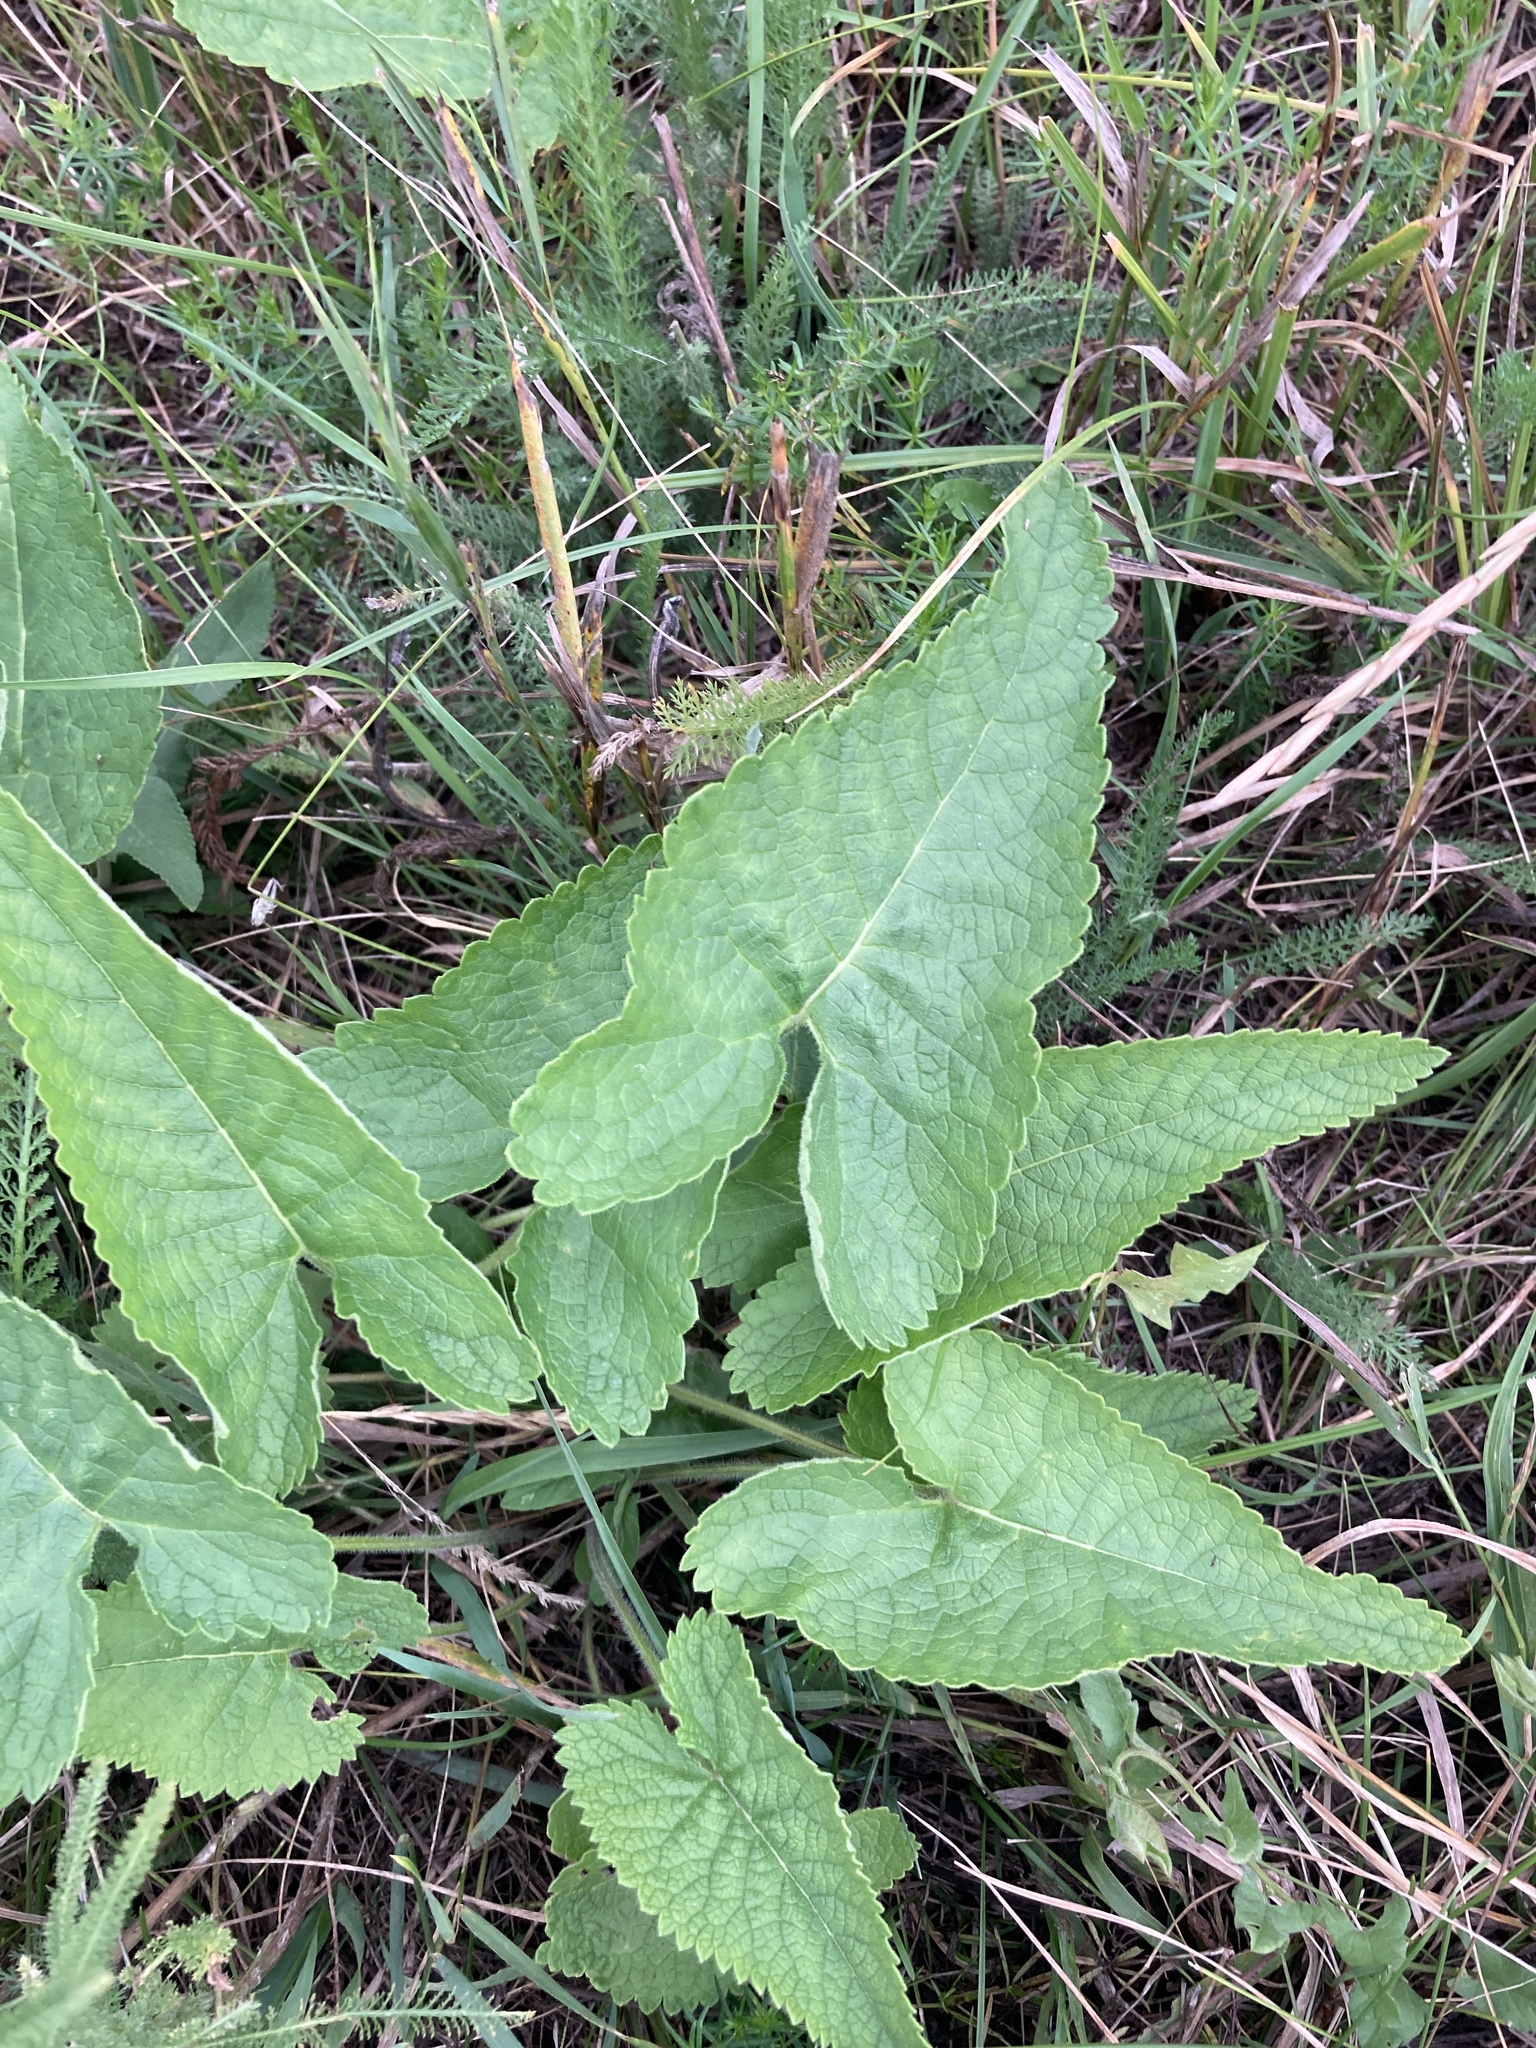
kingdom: Plantae
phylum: Tracheophyta
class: Magnoliopsida
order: Lamiales
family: Lamiaceae
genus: Phlomoides
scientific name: Phlomoides tuberosa
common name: Tuberous jerusalem sage
